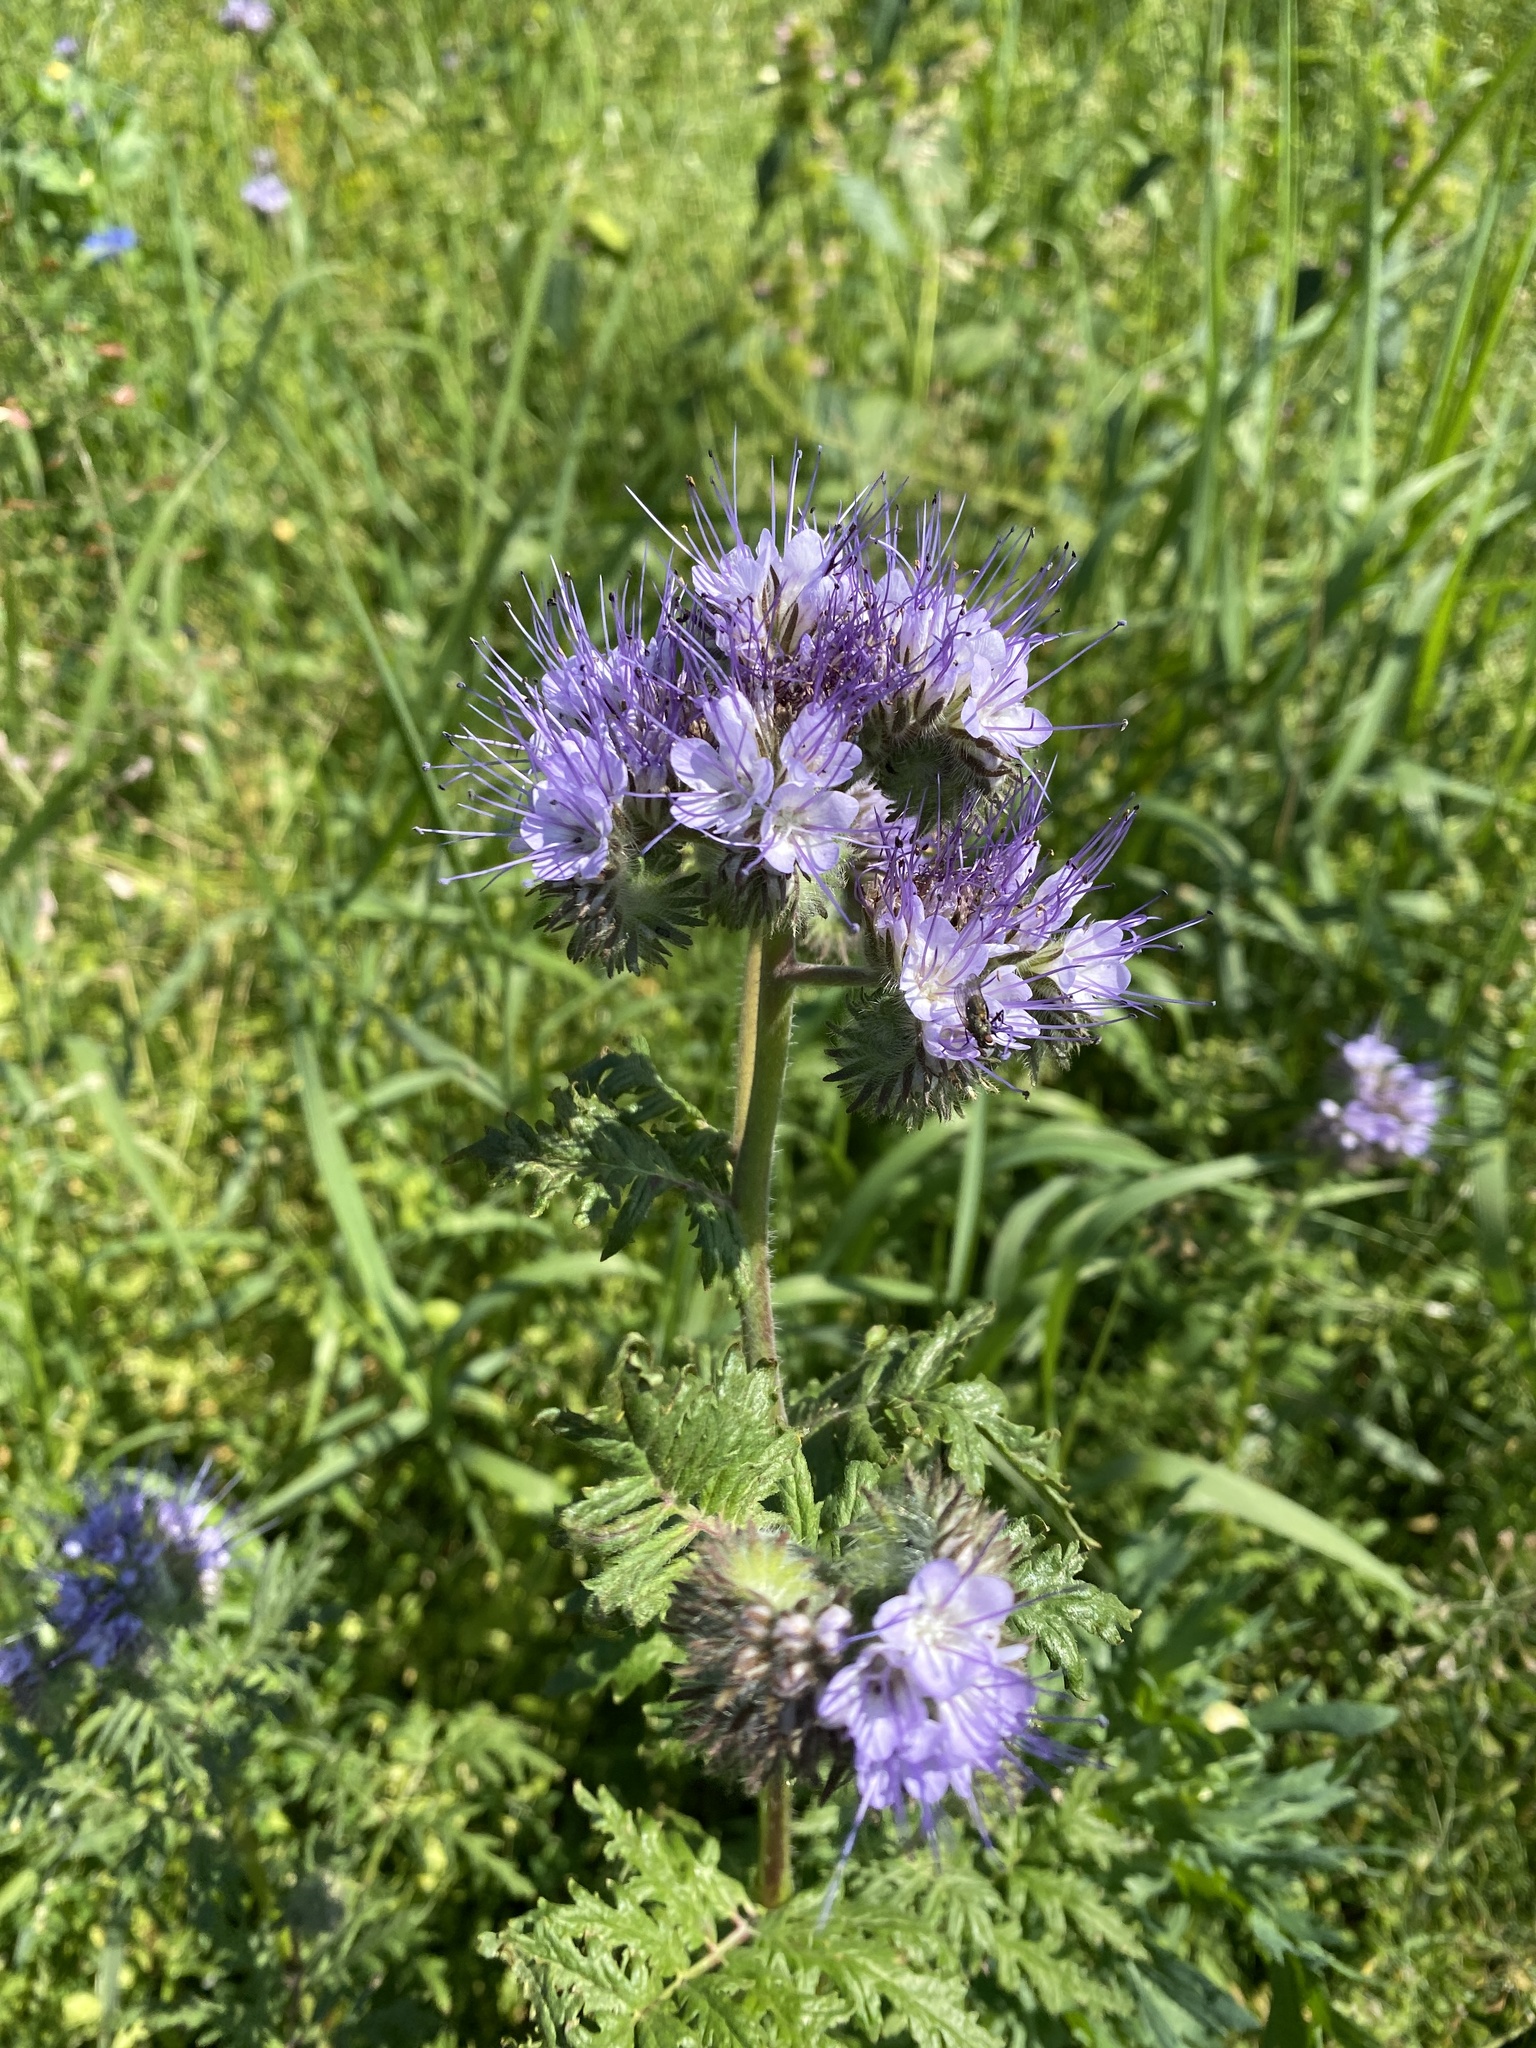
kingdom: Plantae
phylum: Tracheophyta
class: Magnoliopsida
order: Boraginales
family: Hydrophyllaceae
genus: Phacelia
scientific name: Phacelia tanacetifolia
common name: Phacelia
